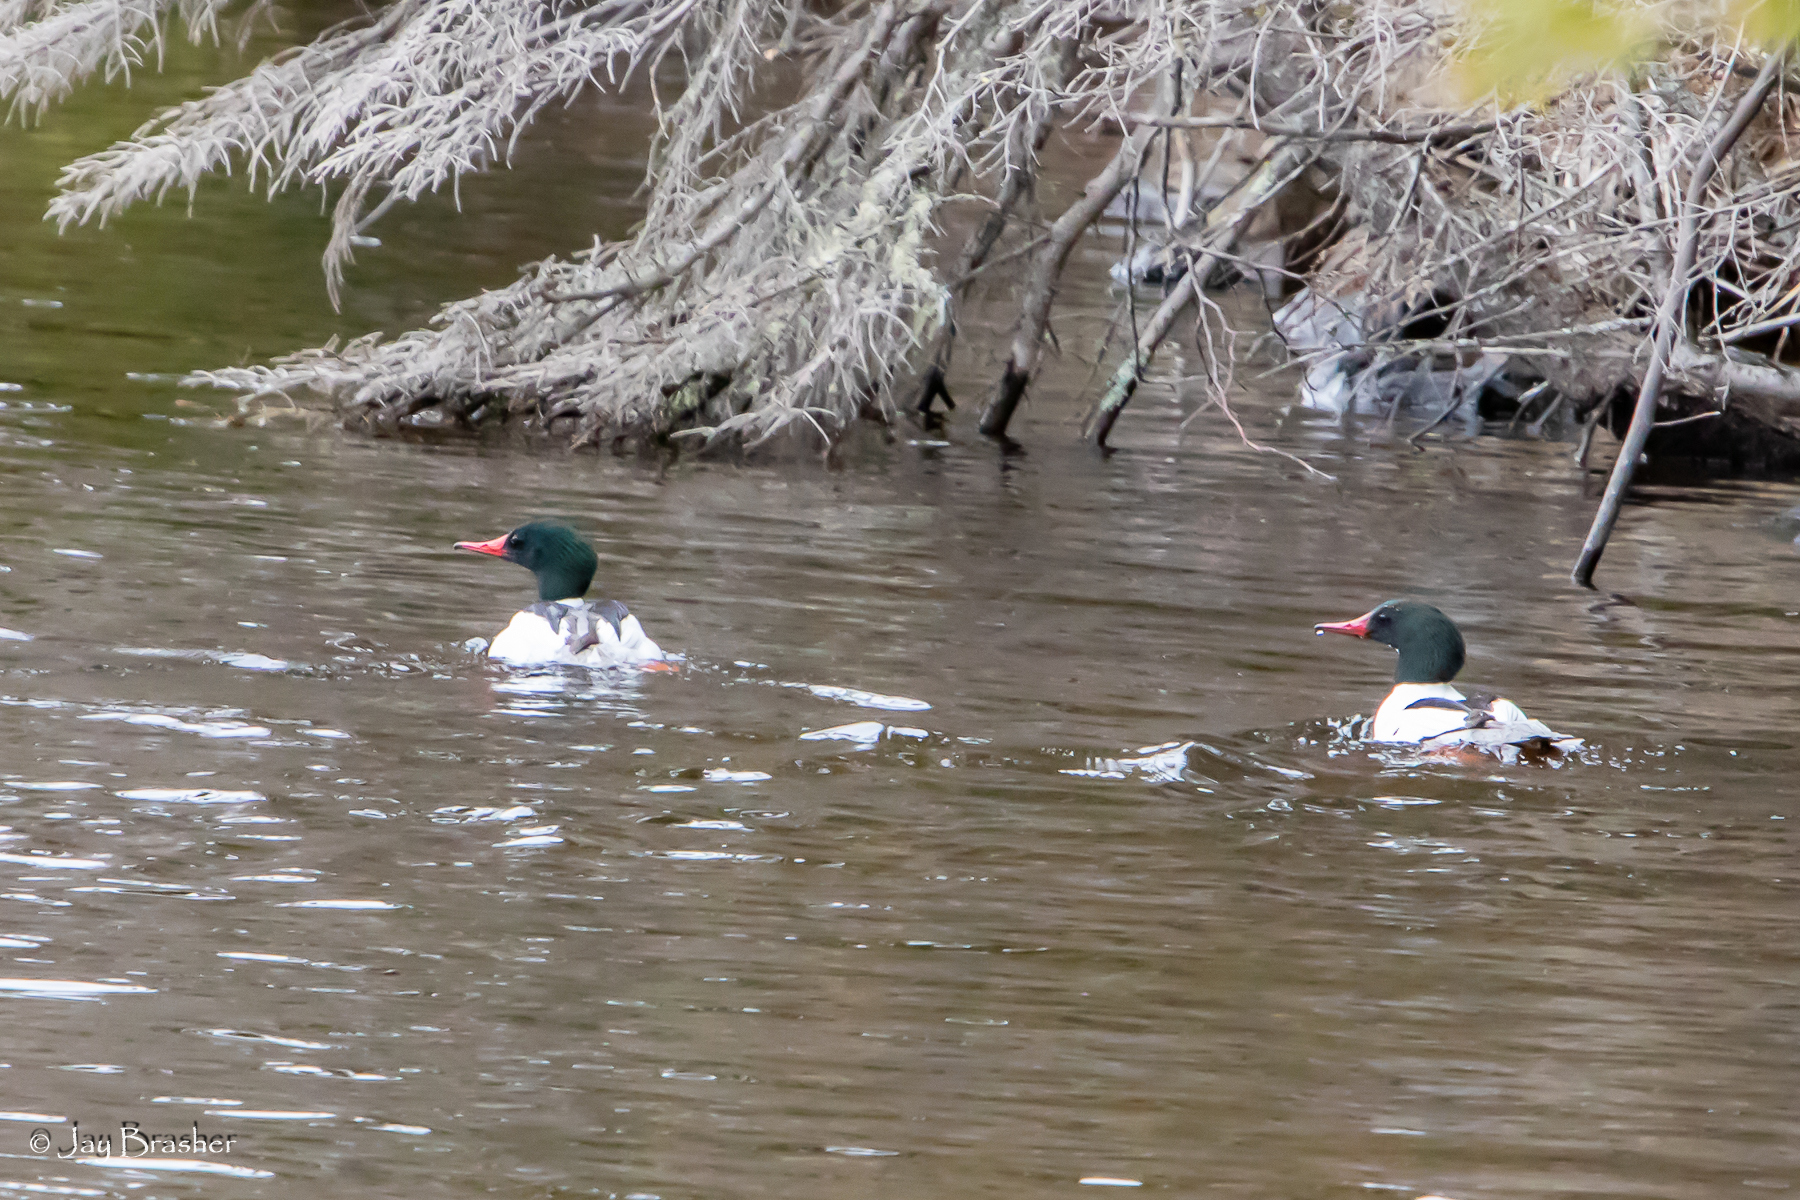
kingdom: Animalia
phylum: Chordata
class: Aves
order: Anseriformes
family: Anatidae
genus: Mergus
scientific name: Mergus merganser
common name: Common merganser
